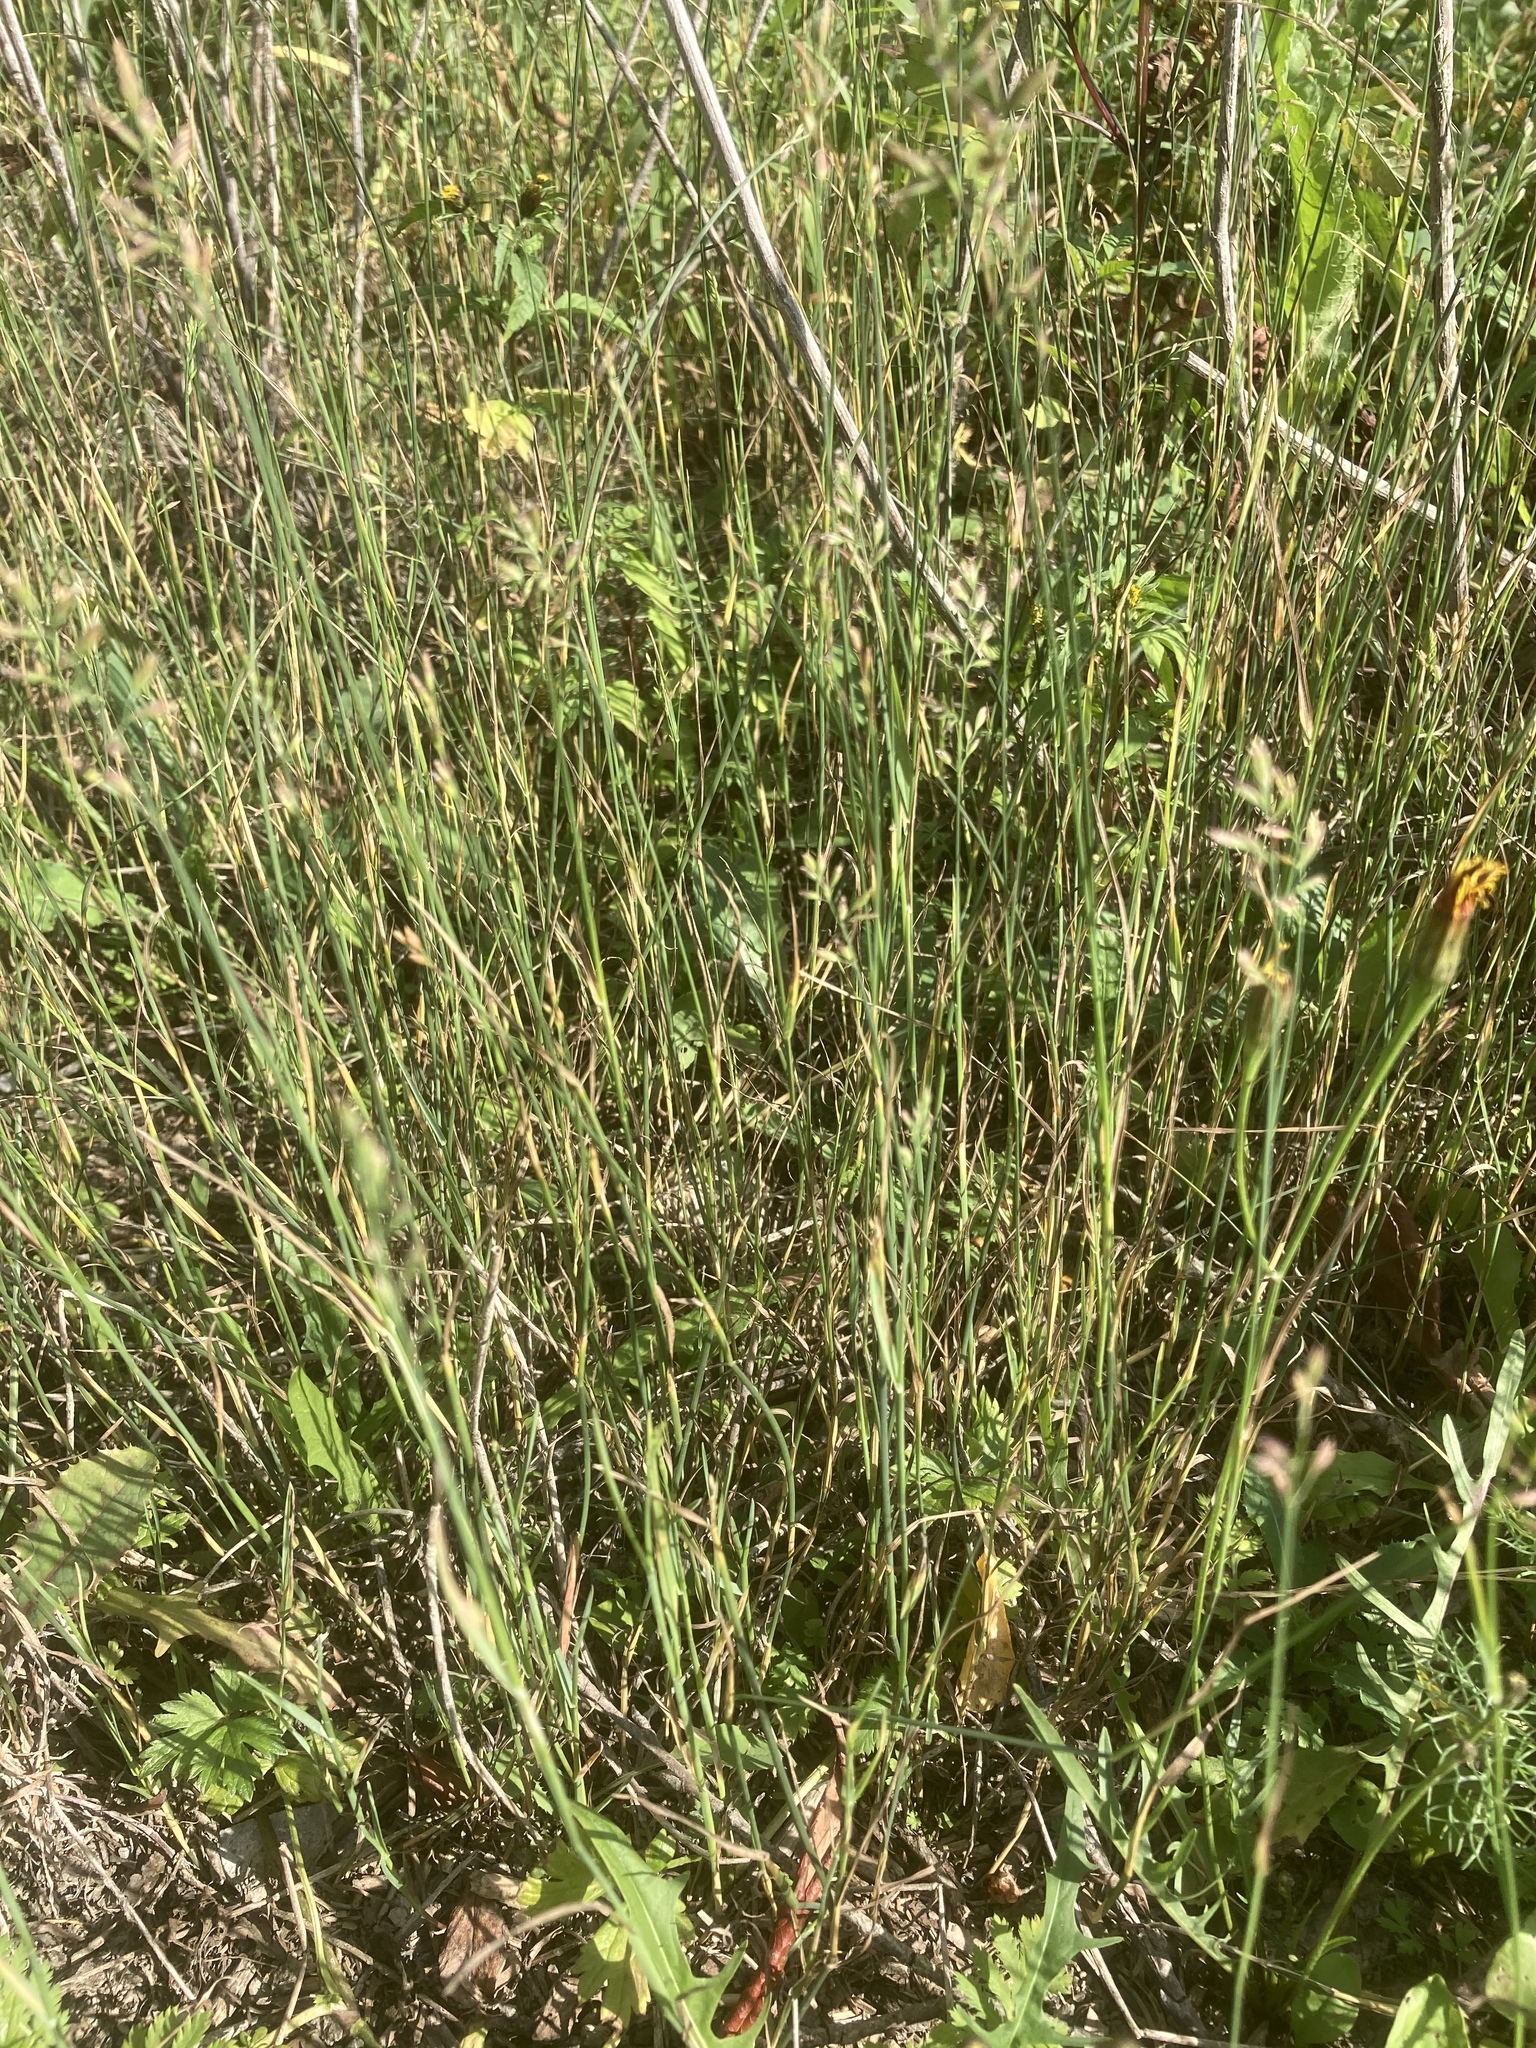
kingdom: Plantae
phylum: Tracheophyta
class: Liliopsida
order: Poales
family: Poaceae
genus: Poa
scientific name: Poa compressa
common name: Canada bluegrass
